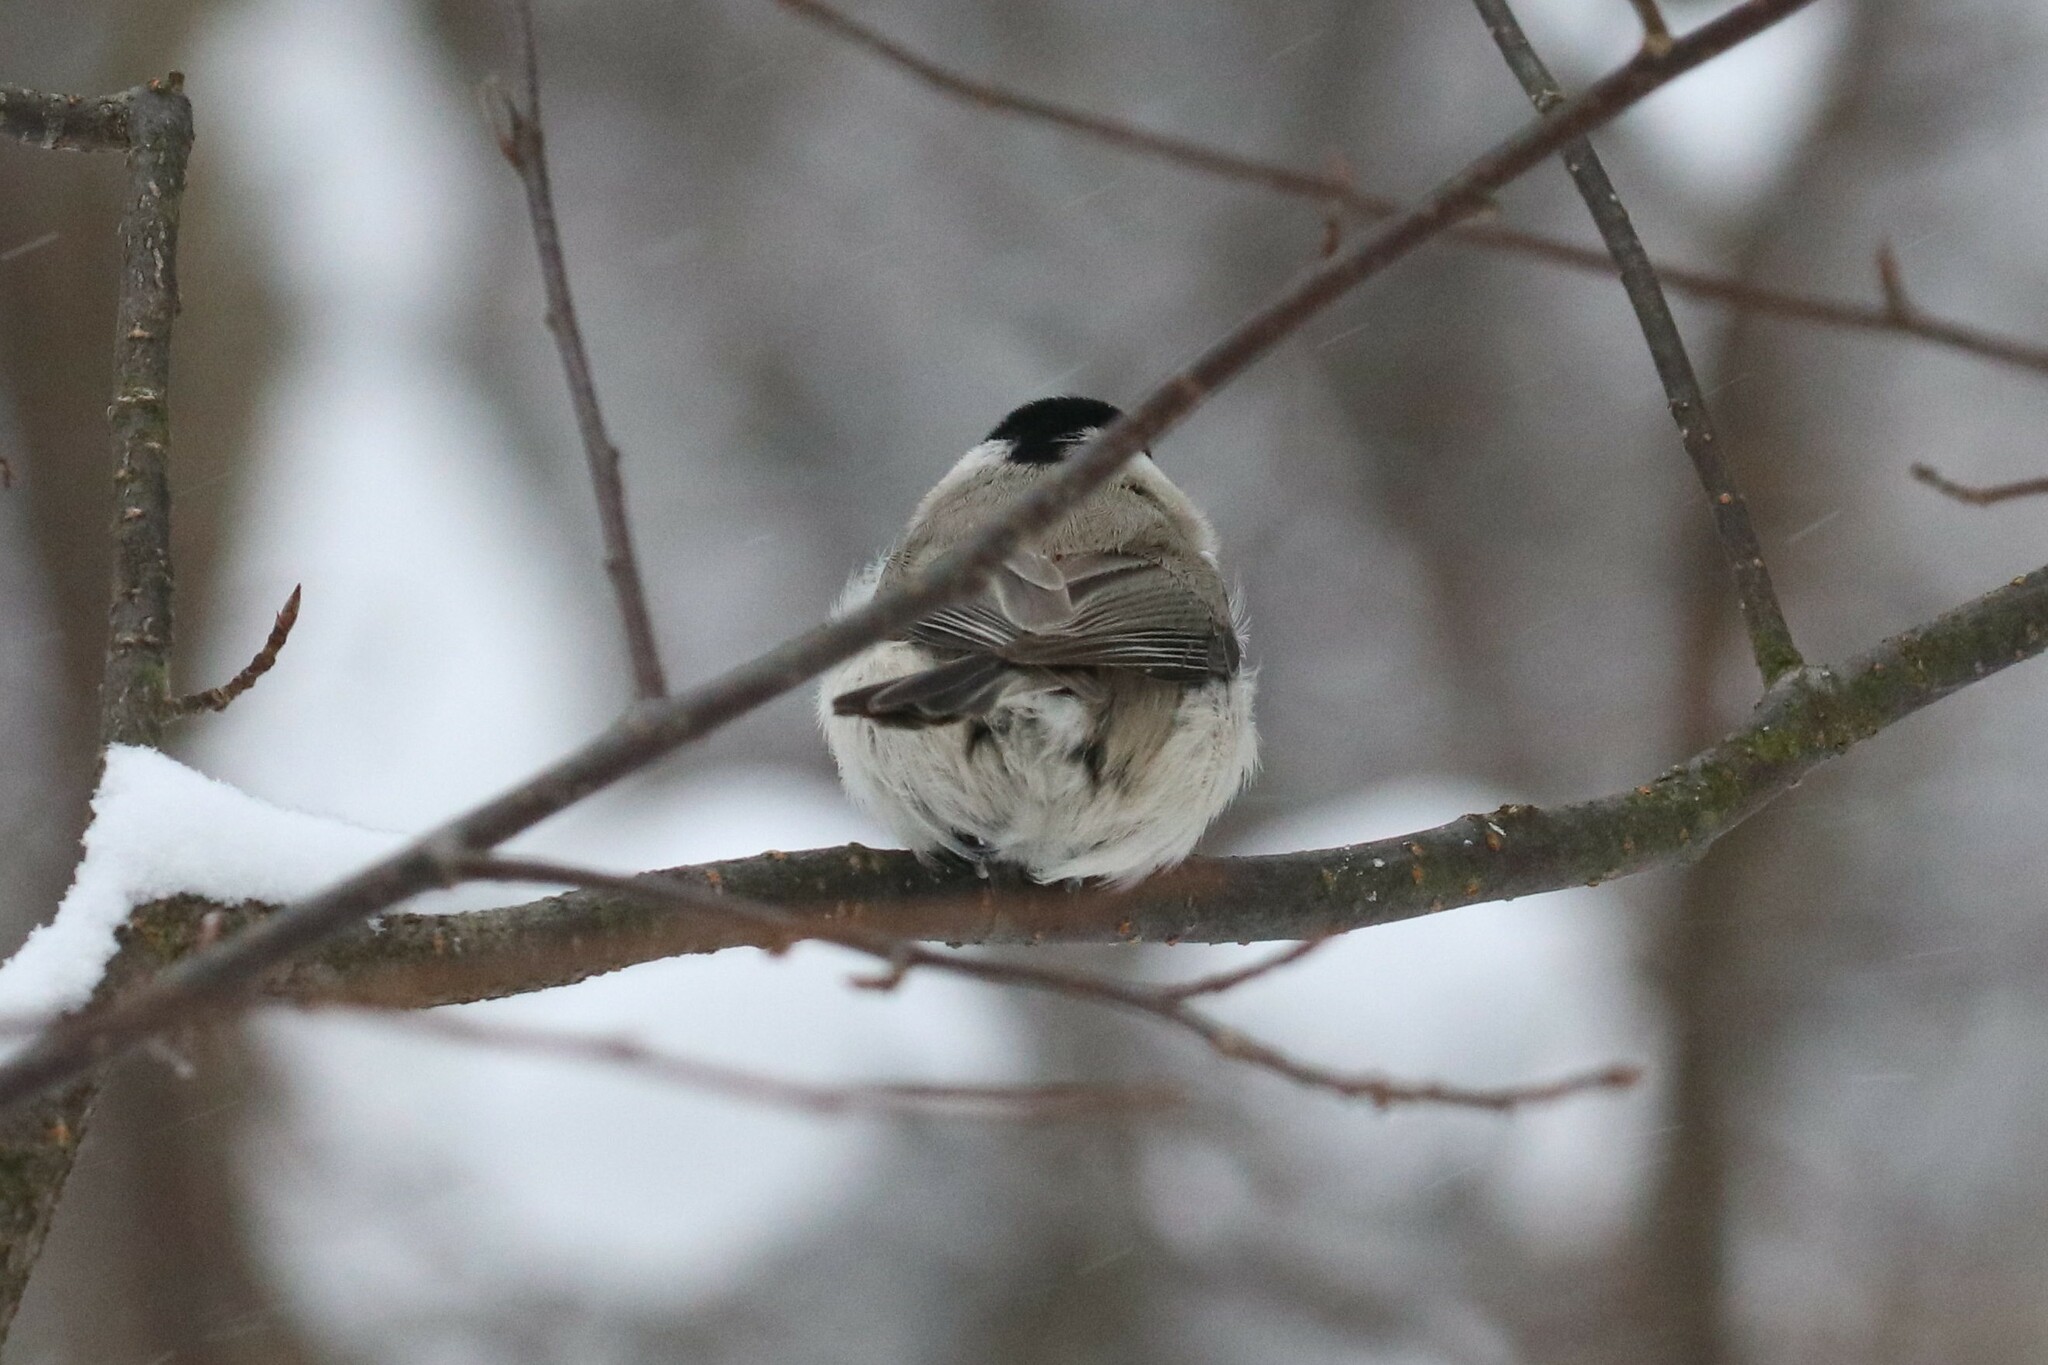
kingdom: Animalia
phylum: Chordata
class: Aves
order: Passeriformes
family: Paridae
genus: Poecile
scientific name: Poecile palustris
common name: Marsh tit
